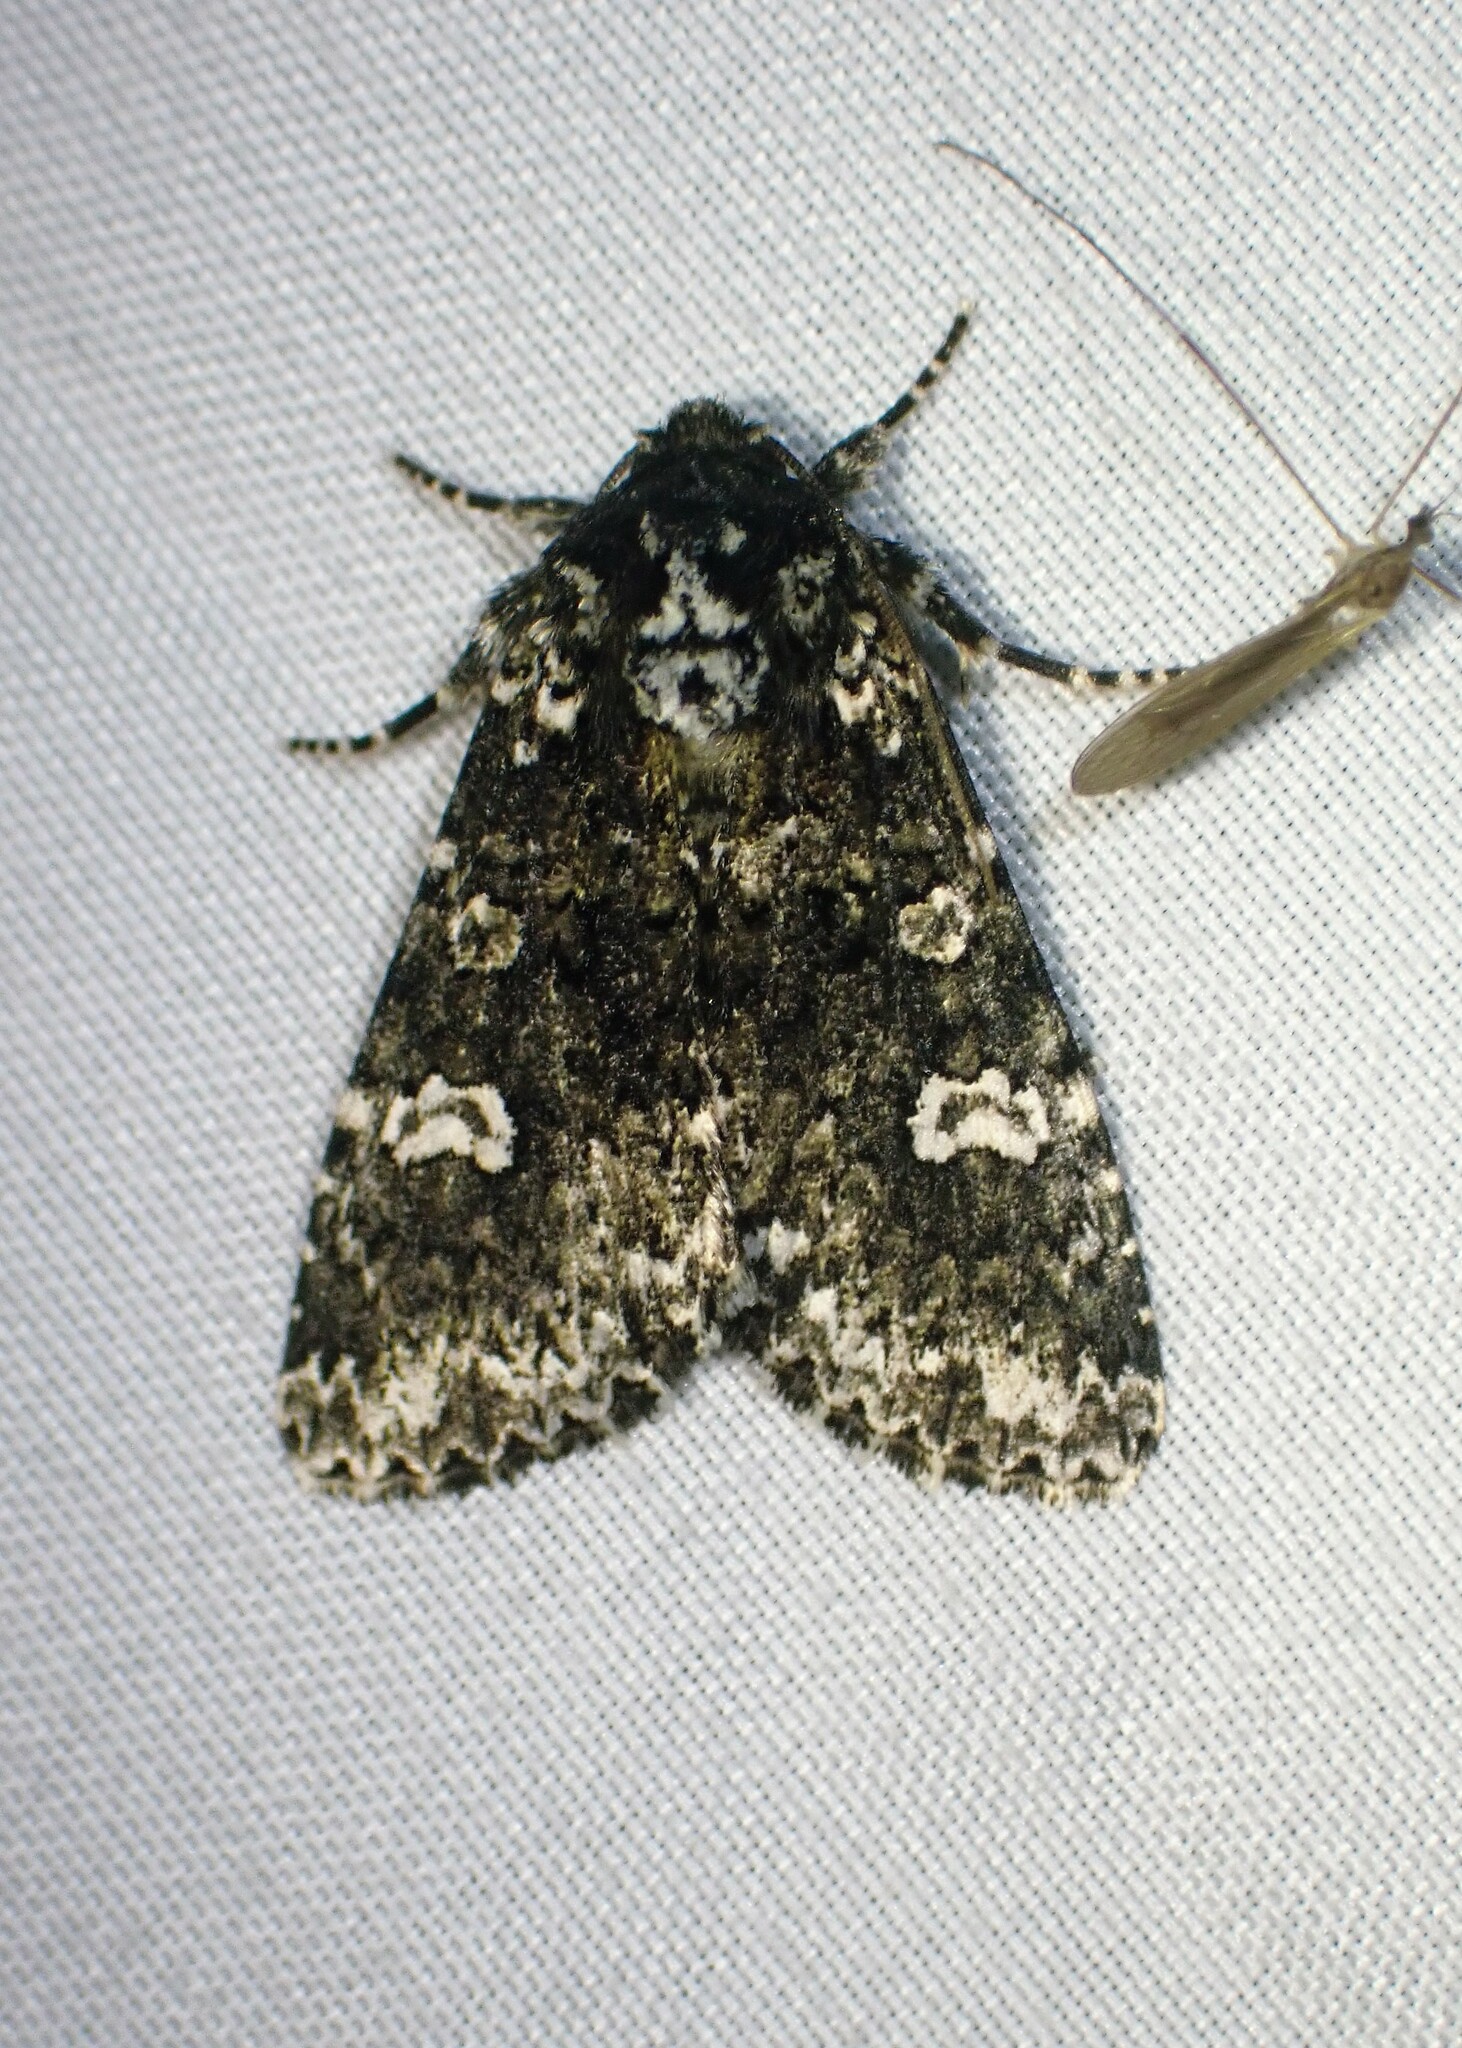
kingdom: Animalia
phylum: Arthropoda
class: Insecta
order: Lepidoptera
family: Noctuidae
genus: Melanchra
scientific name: Melanchra adjuncta
